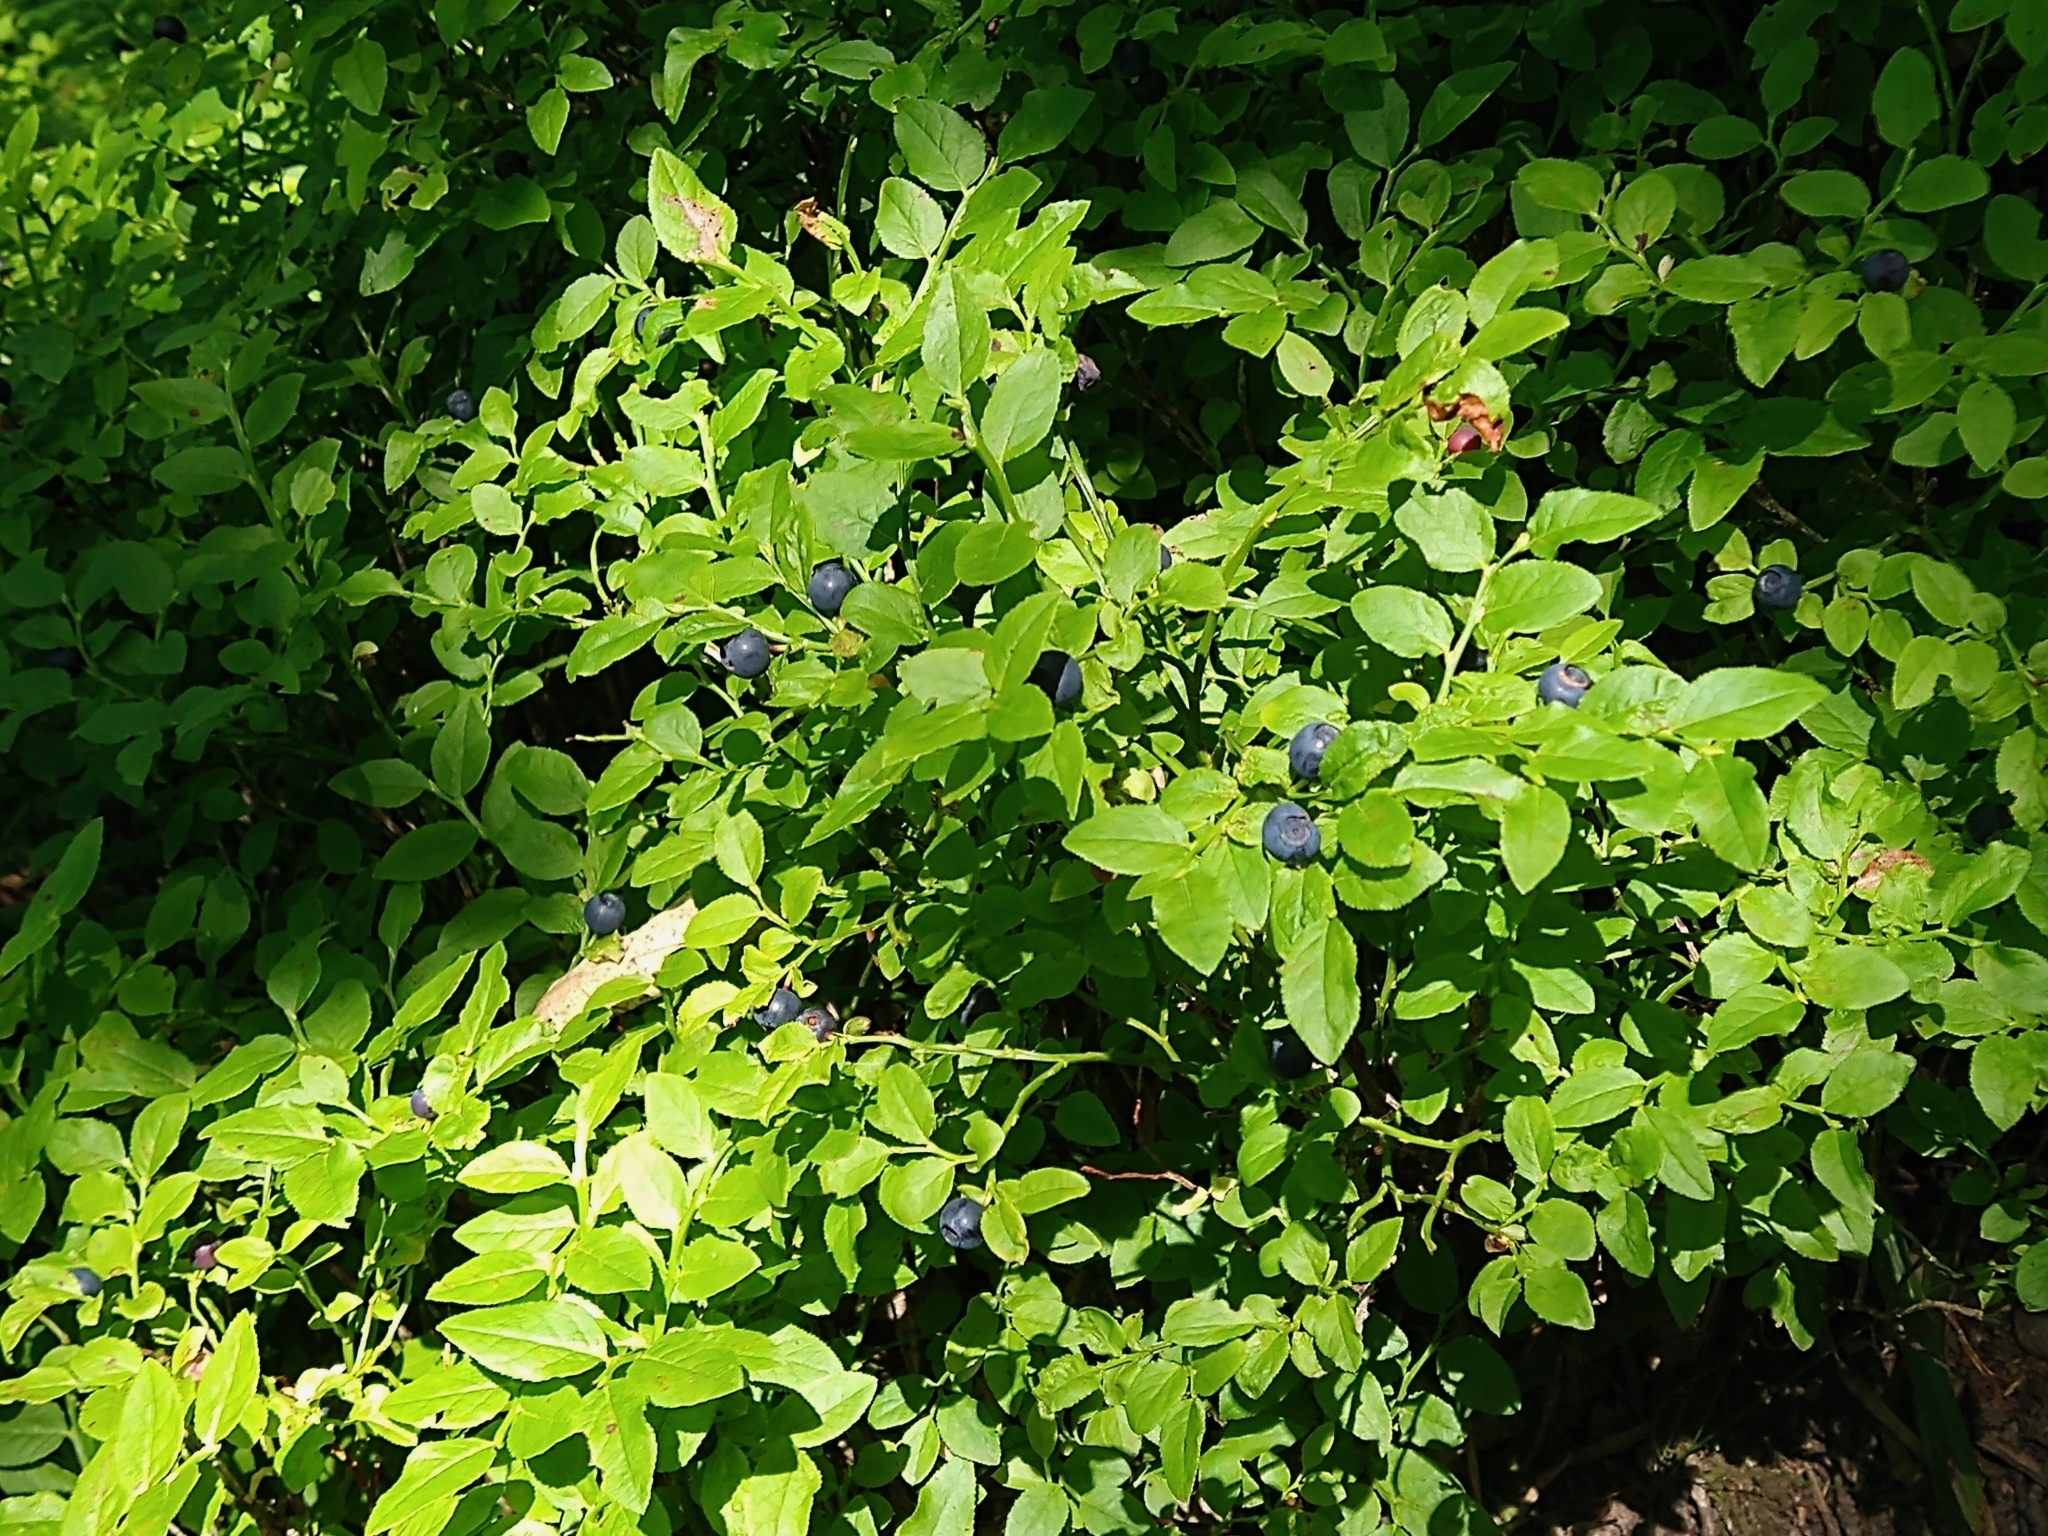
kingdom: Plantae
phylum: Tracheophyta
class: Magnoliopsida
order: Ericales
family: Ericaceae
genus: Vaccinium
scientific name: Vaccinium myrtillus
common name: Bilberry
